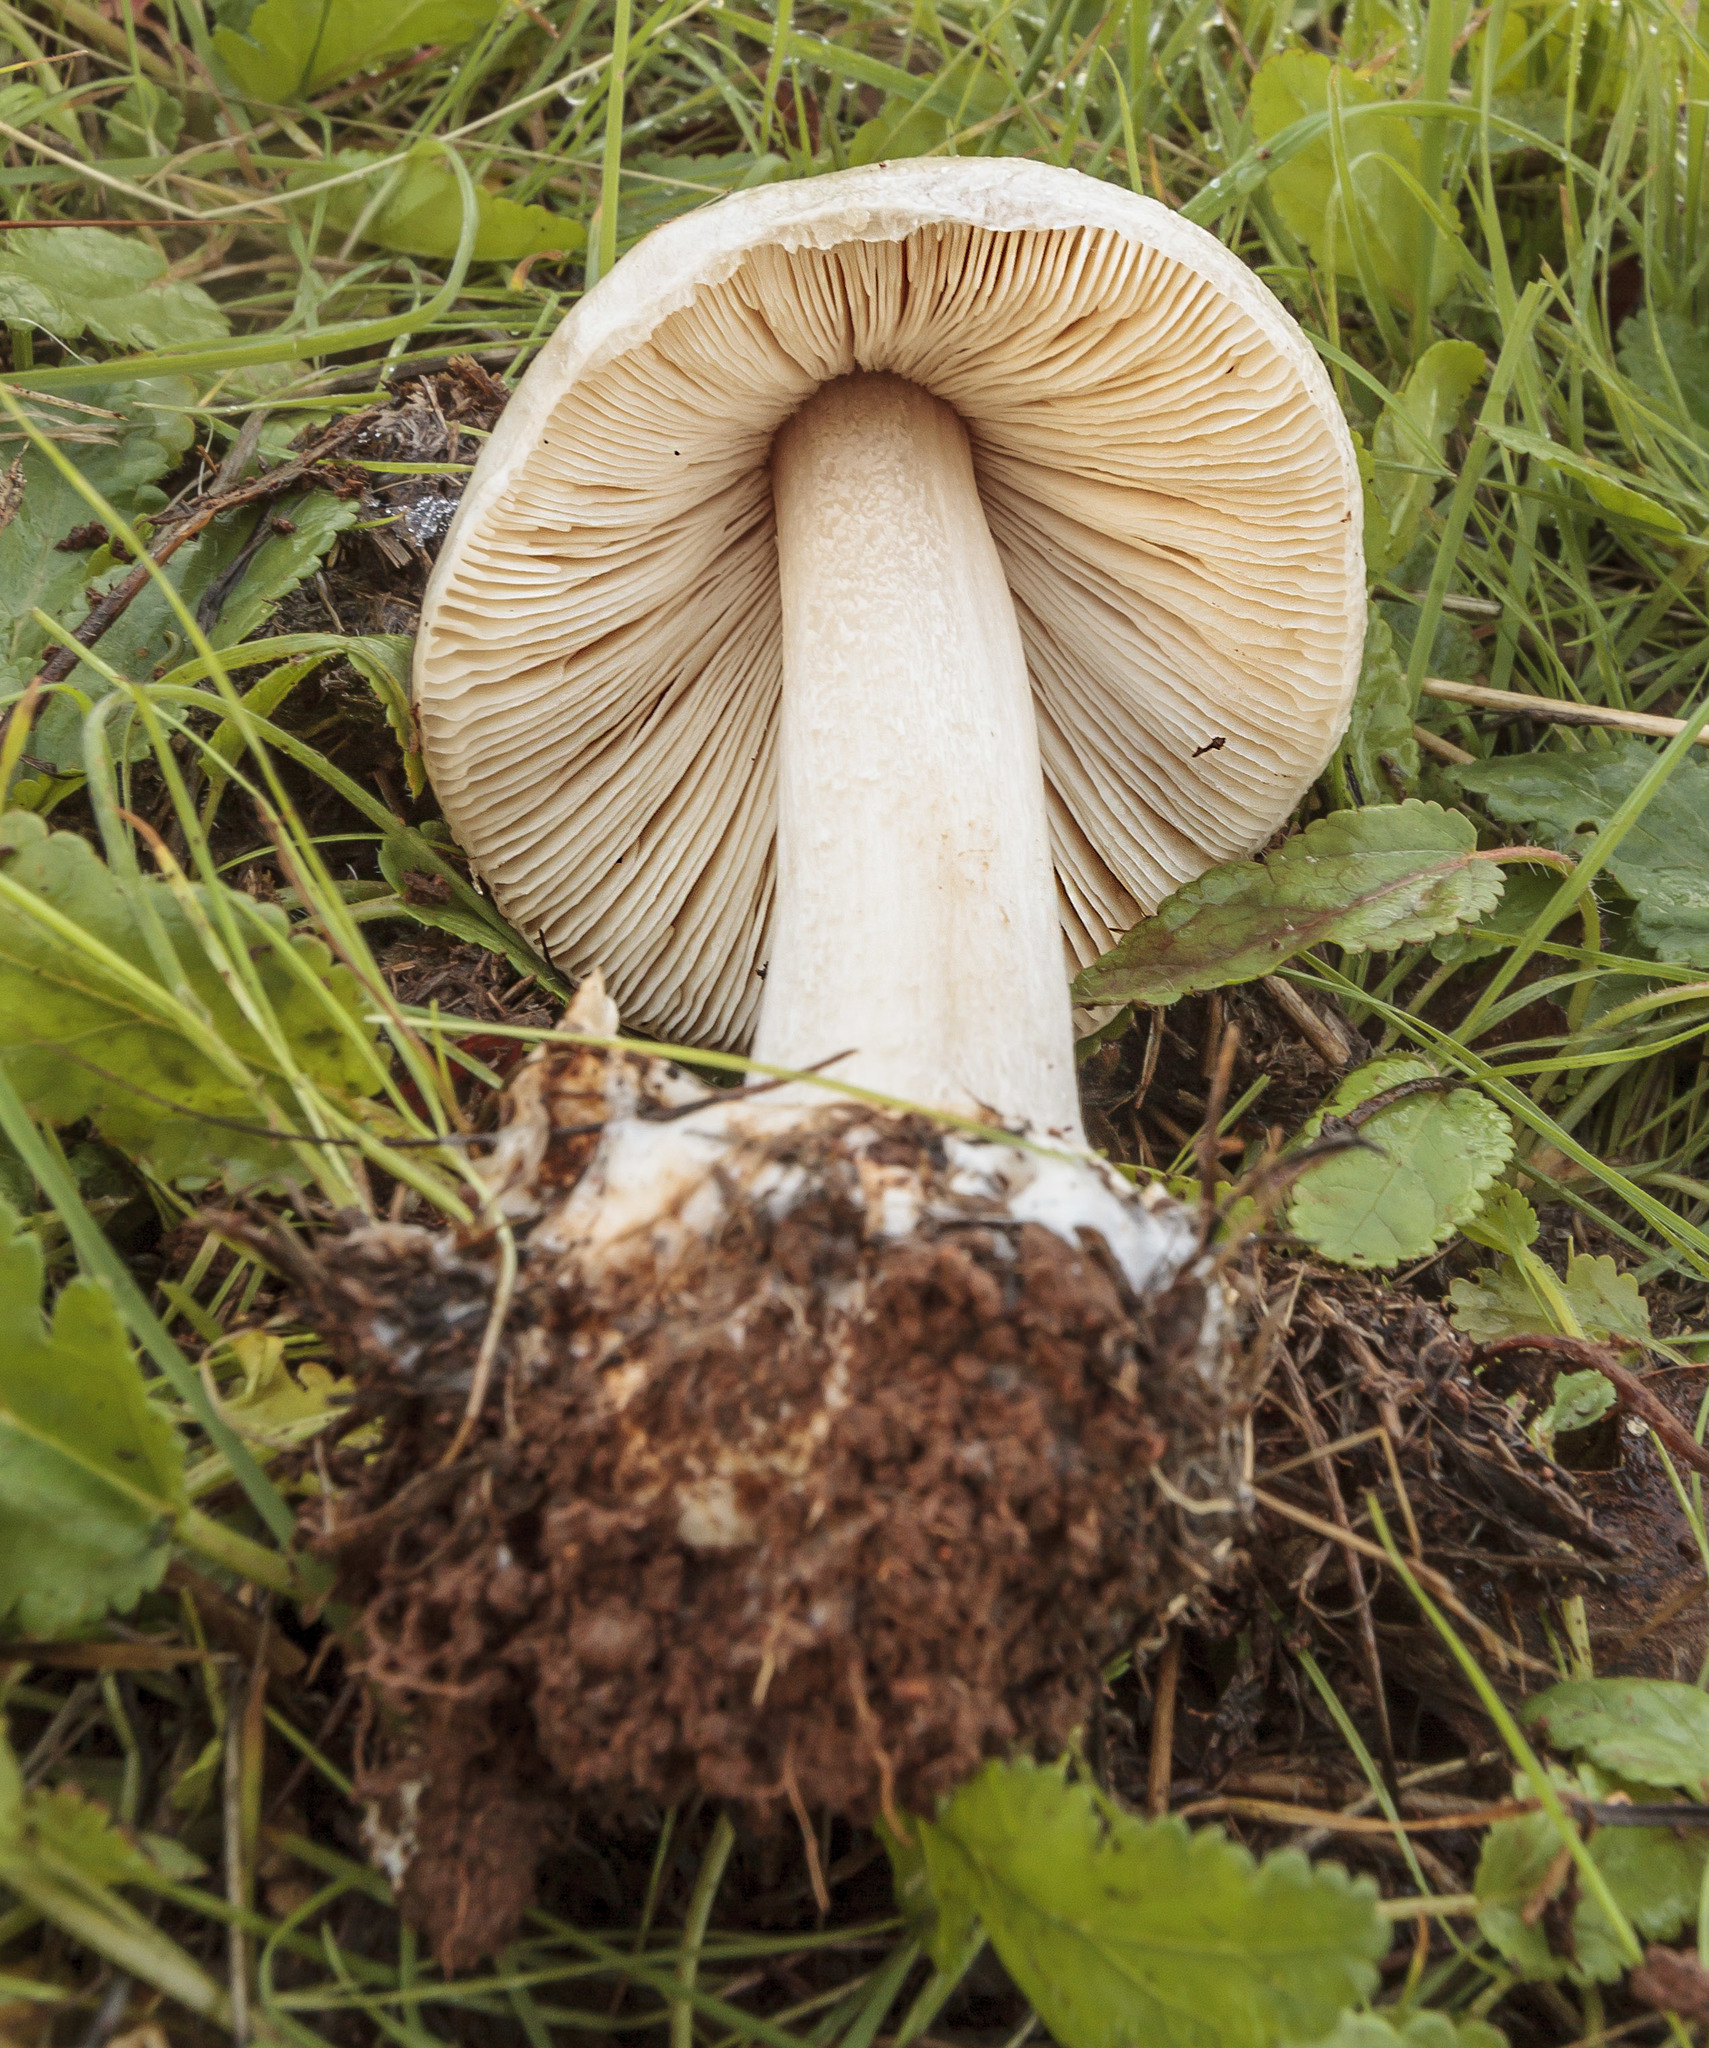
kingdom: Fungi
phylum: Basidiomycota
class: Agaricomycetes
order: Agaricales
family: Pluteaceae
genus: Volvopluteus
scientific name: Volvopluteus gloiocephalus
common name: Stubble rosegill
